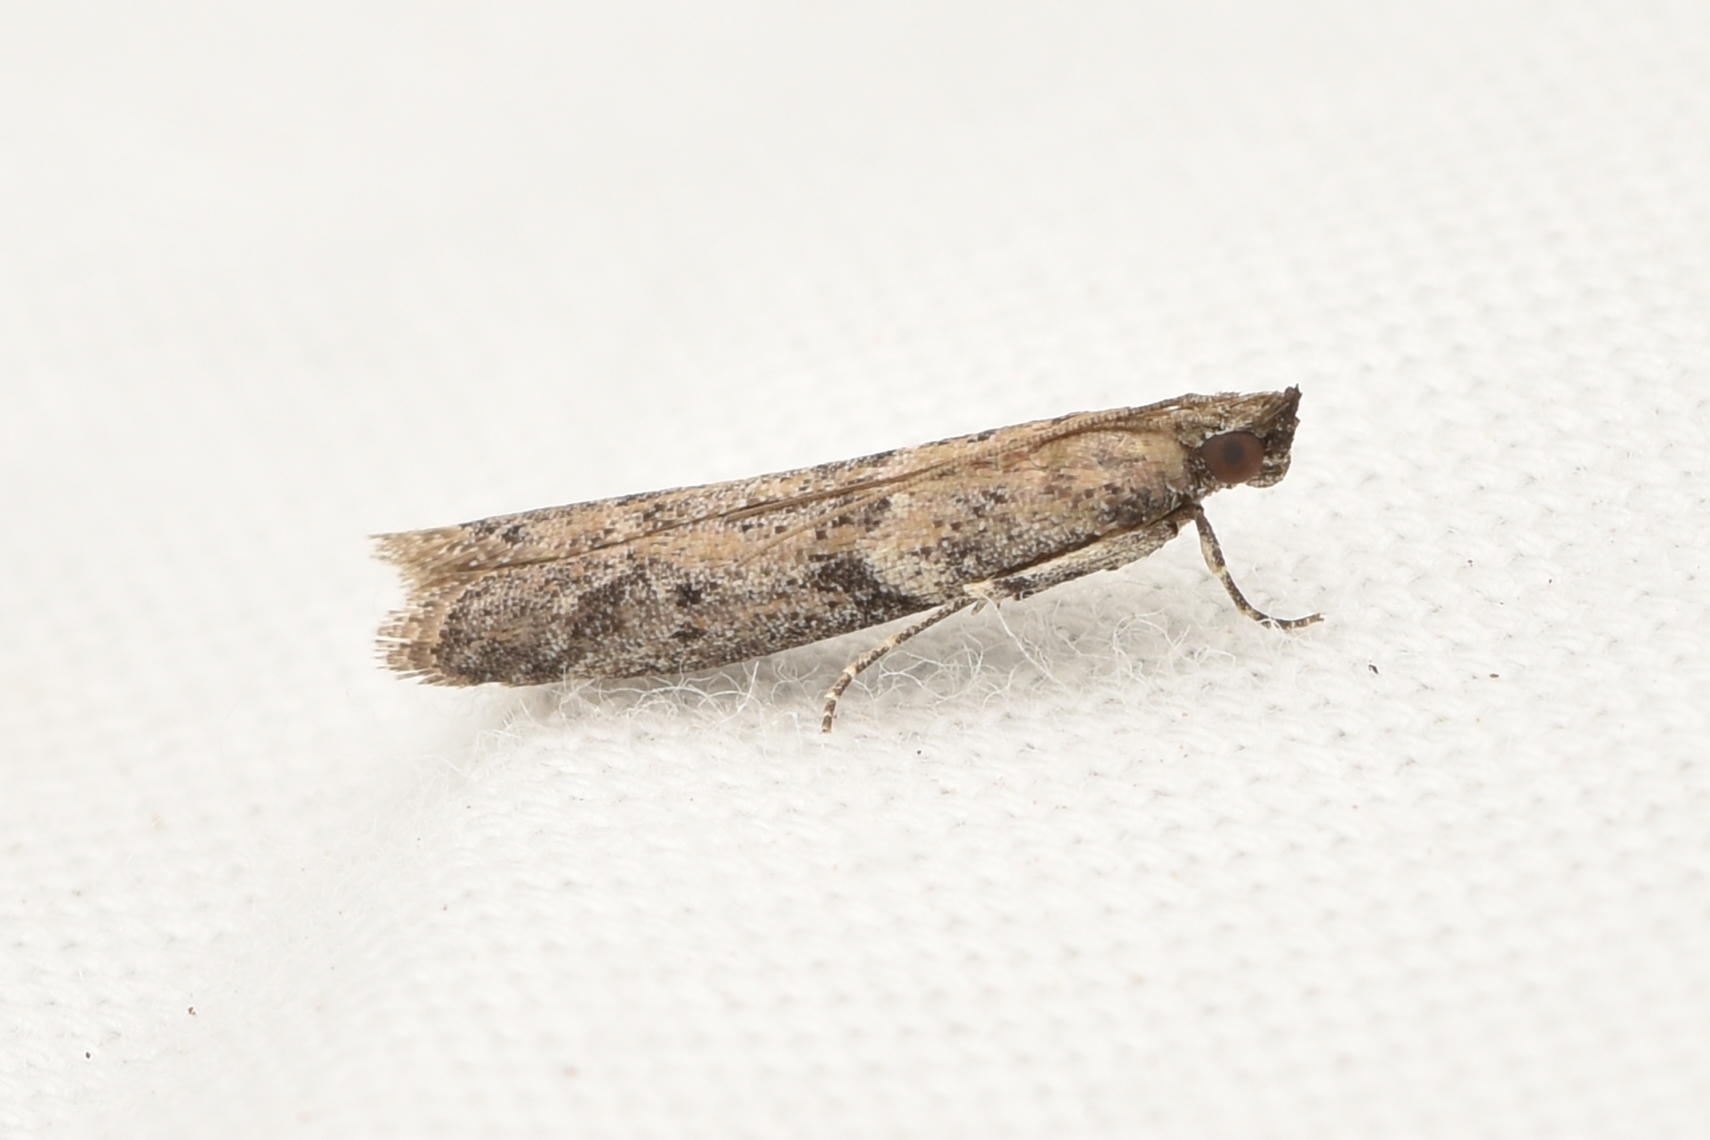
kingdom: Animalia
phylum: Arthropoda
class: Insecta
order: Lepidoptera
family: Pyralidae
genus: Ephestiodes
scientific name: Ephestiodes gilvescentella
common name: Moth
